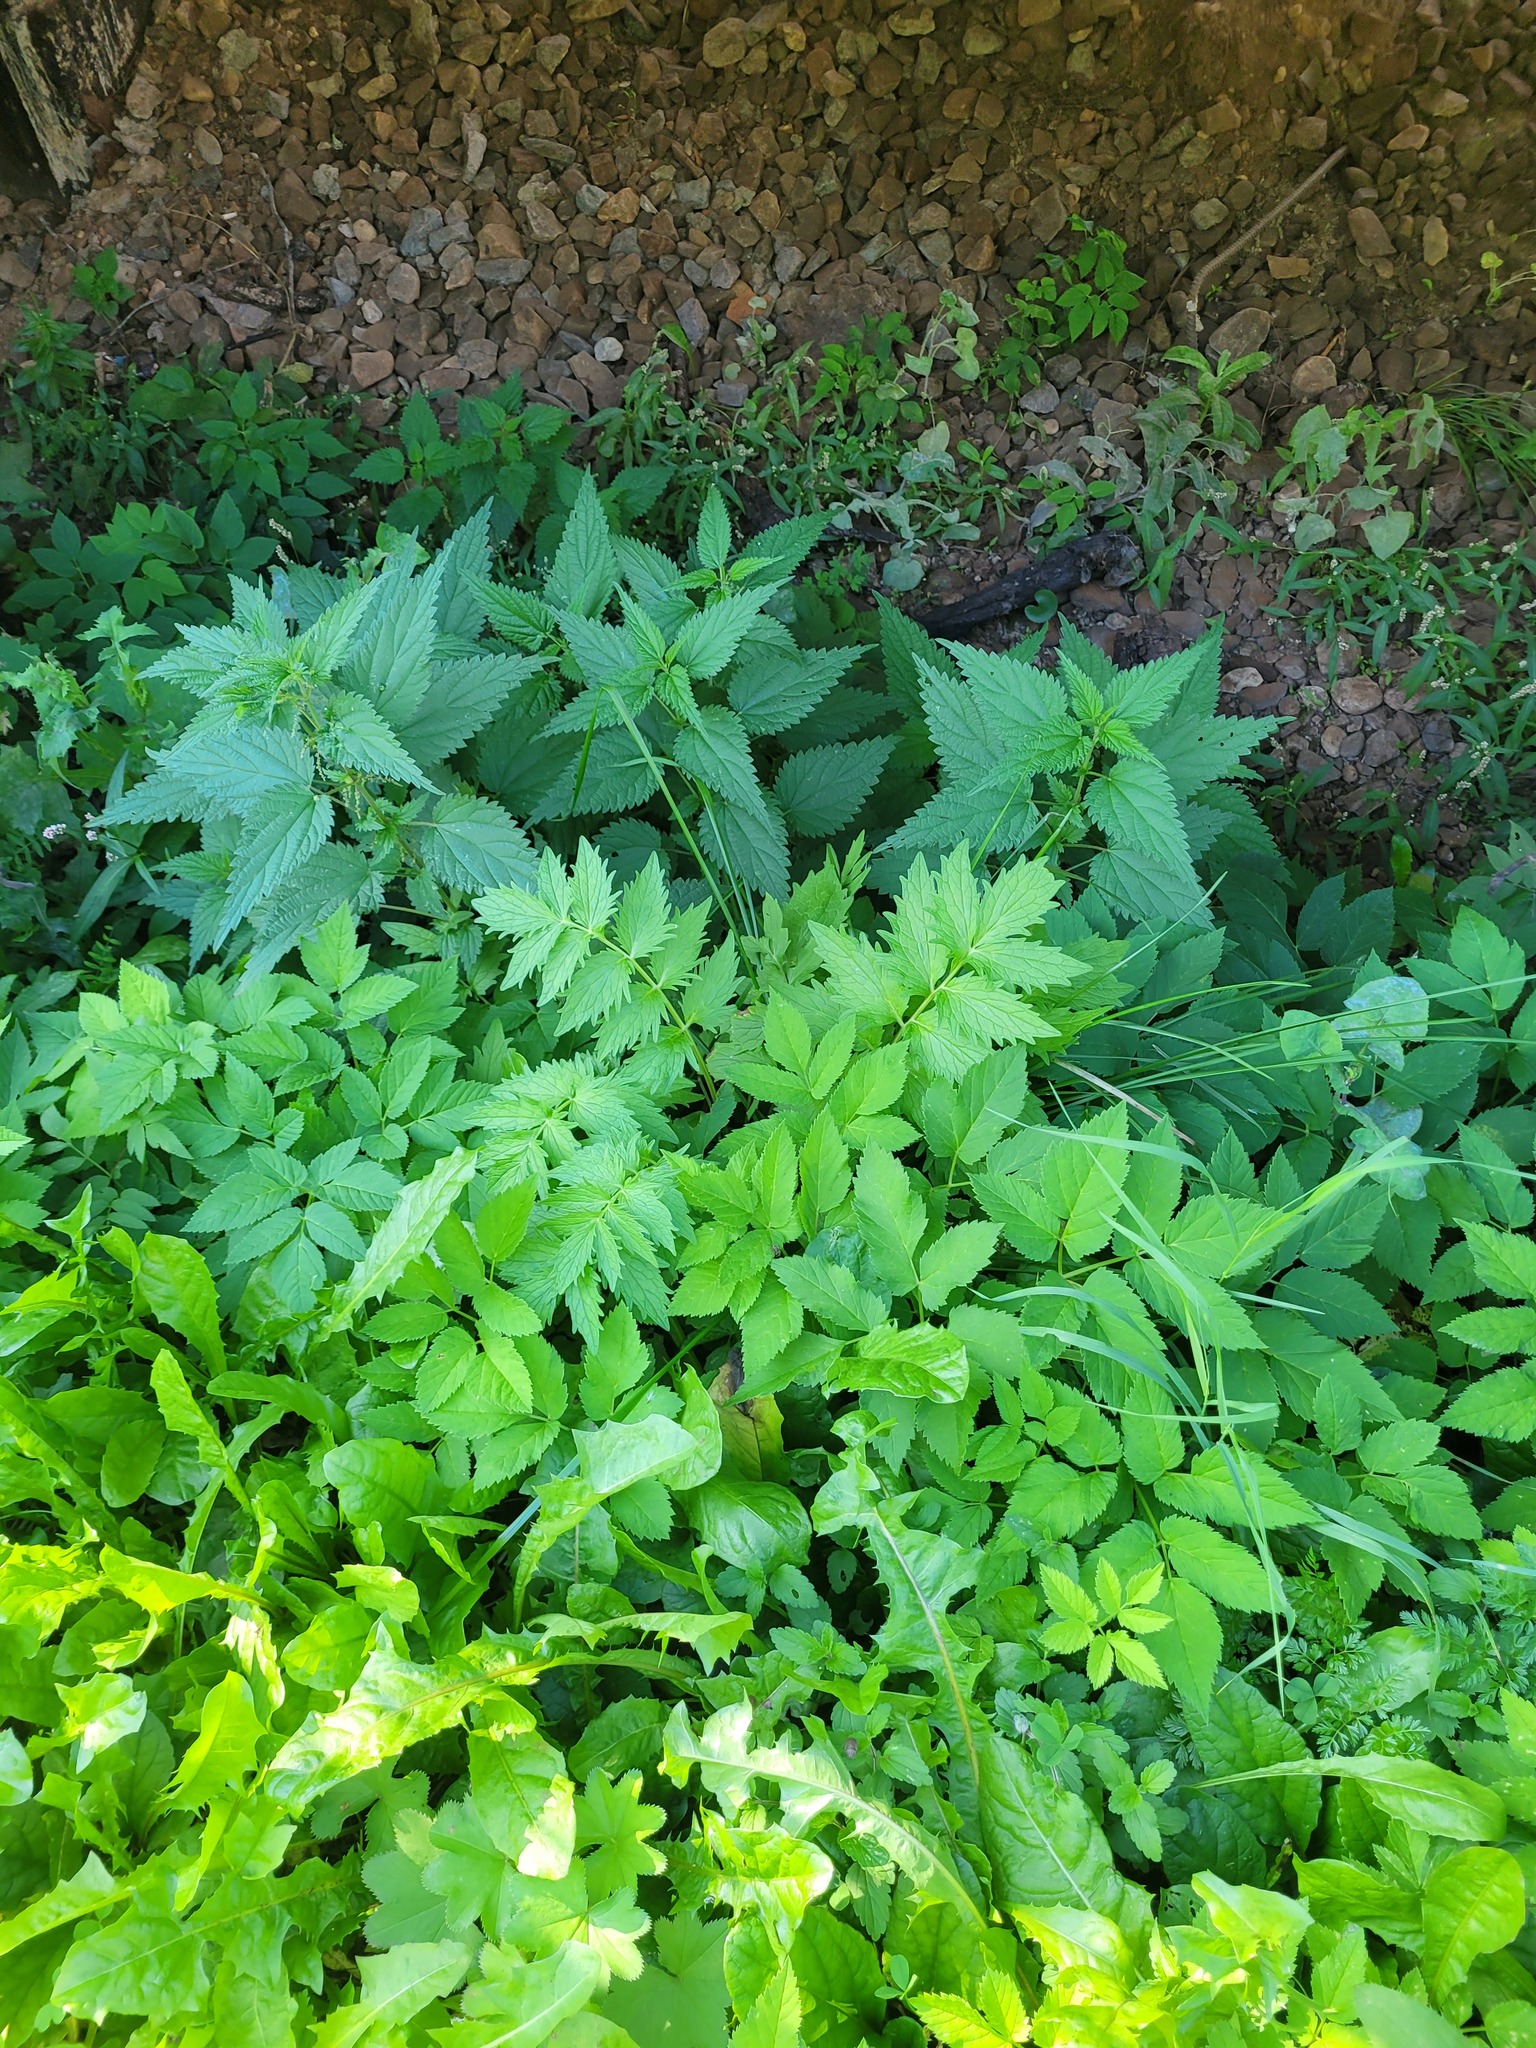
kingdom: Plantae
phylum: Tracheophyta
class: Magnoliopsida
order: Dipsacales
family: Caprifoliaceae
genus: Valeriana
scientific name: Valeriana officinalis
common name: Common valerian
